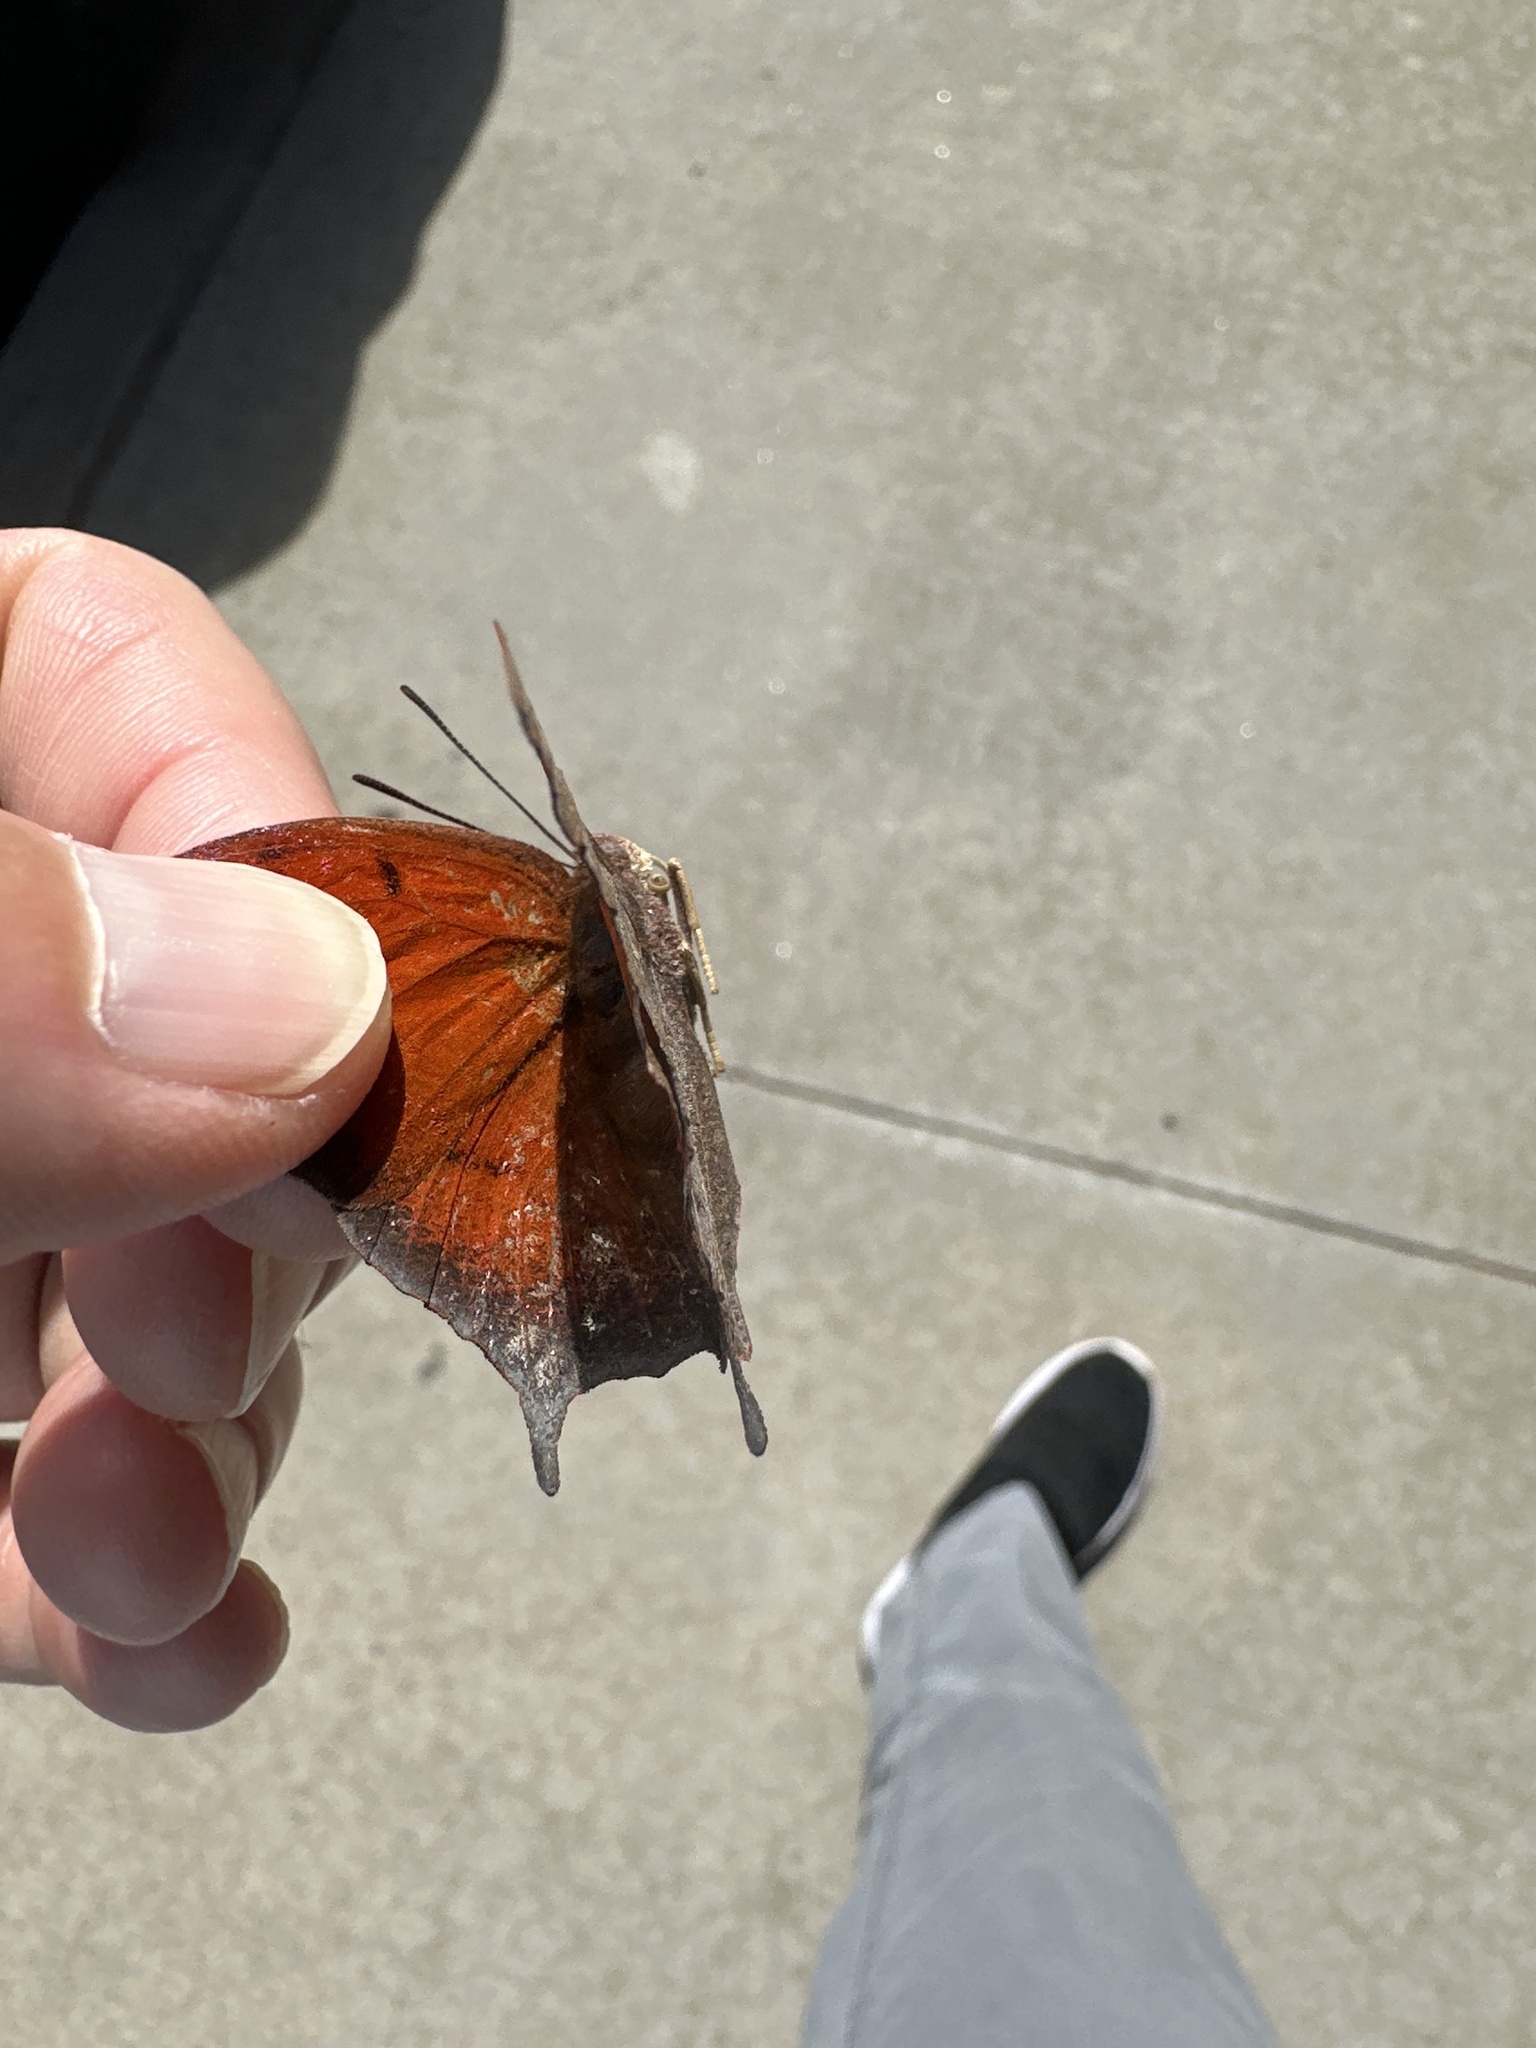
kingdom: Animalia
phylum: Arthropoda
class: Insecta
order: Lepidoptera
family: Nymphalidae
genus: Anaea
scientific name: Anaea andria
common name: Goatweed leafwing
